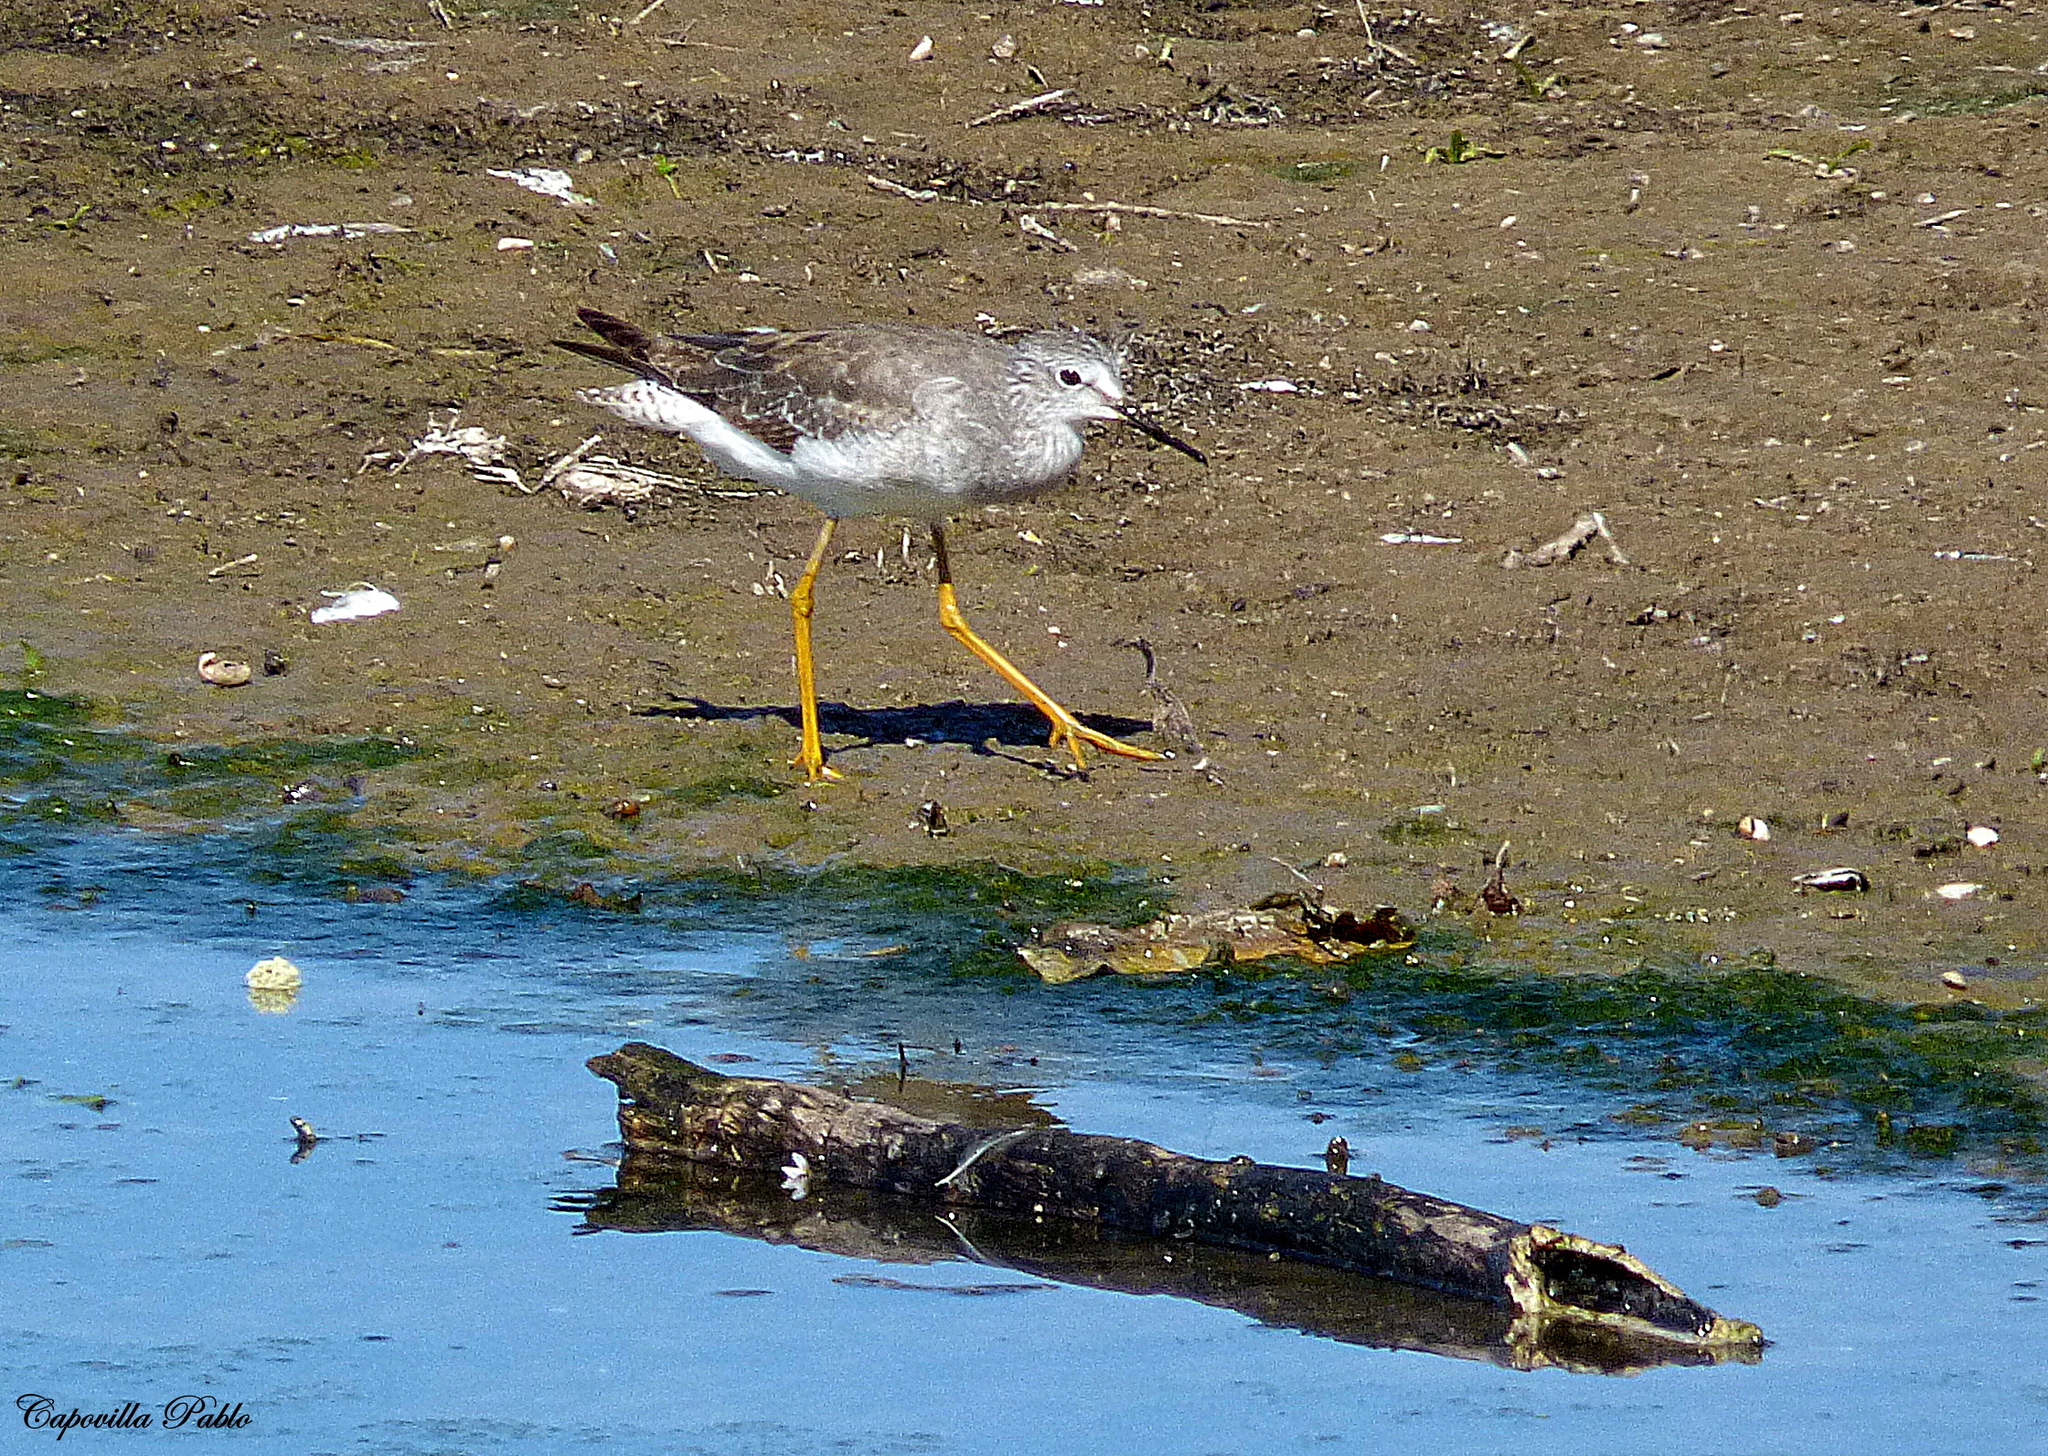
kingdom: Animalia
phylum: Chordata
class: Aves
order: Charadriiformes
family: Scolopacidae
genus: Tringa
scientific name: Tringa flavipes
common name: Lesser yellowlegs
